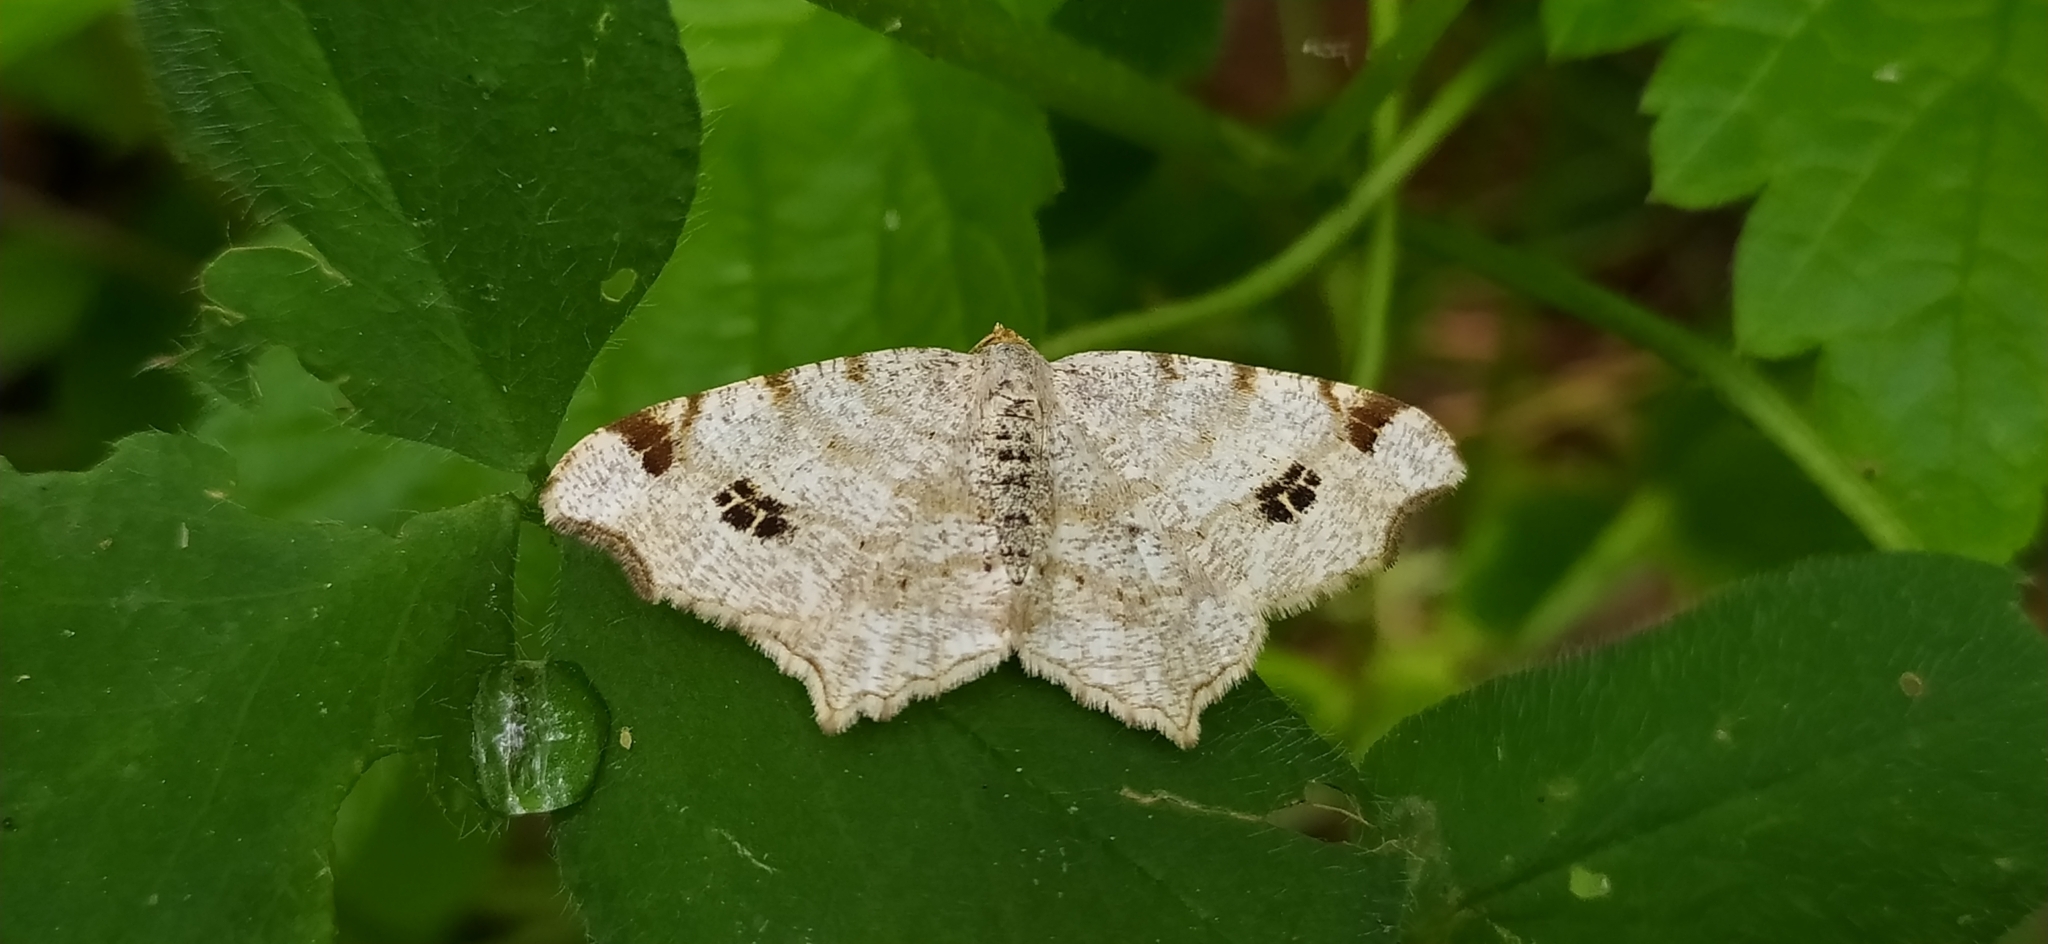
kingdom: Animalia
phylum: Arthropoda
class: Insecta
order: Lepidoptera
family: Geometridae
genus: Macaria
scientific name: Macaria notata
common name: Peacock moth
